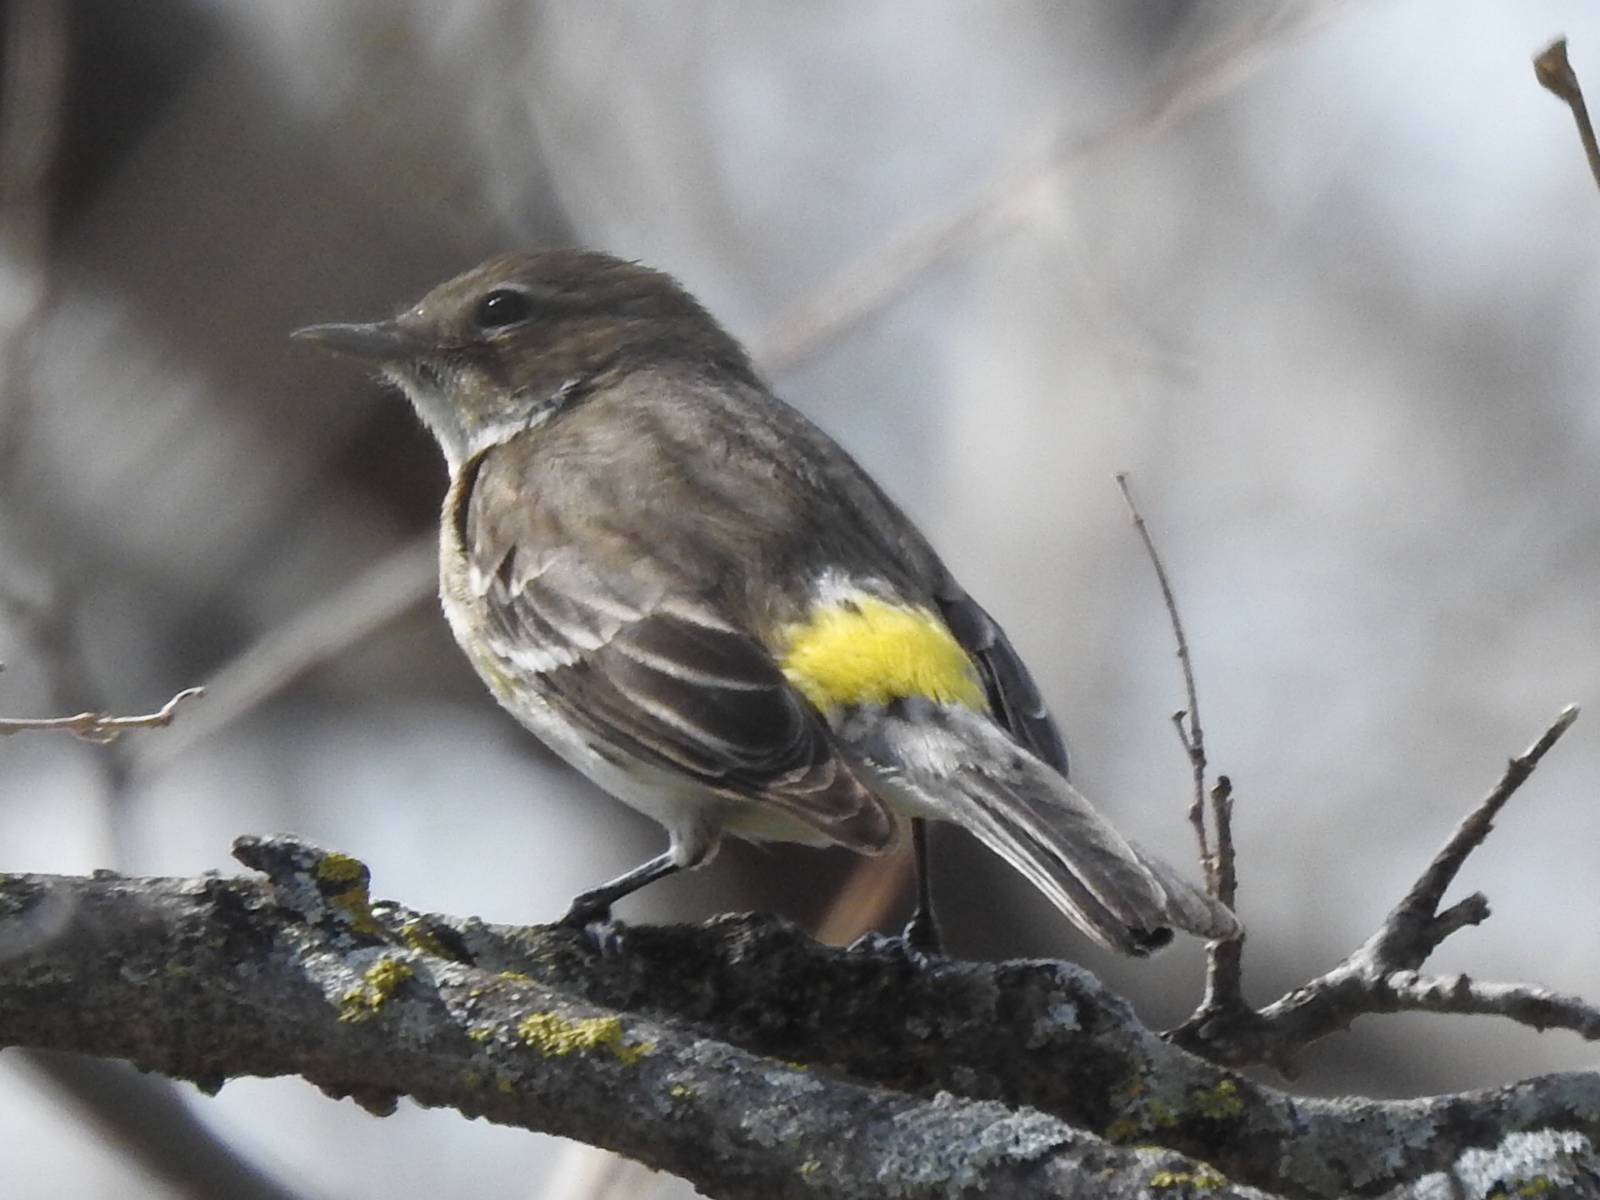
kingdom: Animalia
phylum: Chordata
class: Aves
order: Passeriformes
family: Parulidae
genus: Setophaga
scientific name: Setophaga coronata
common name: Myrtle warbler
